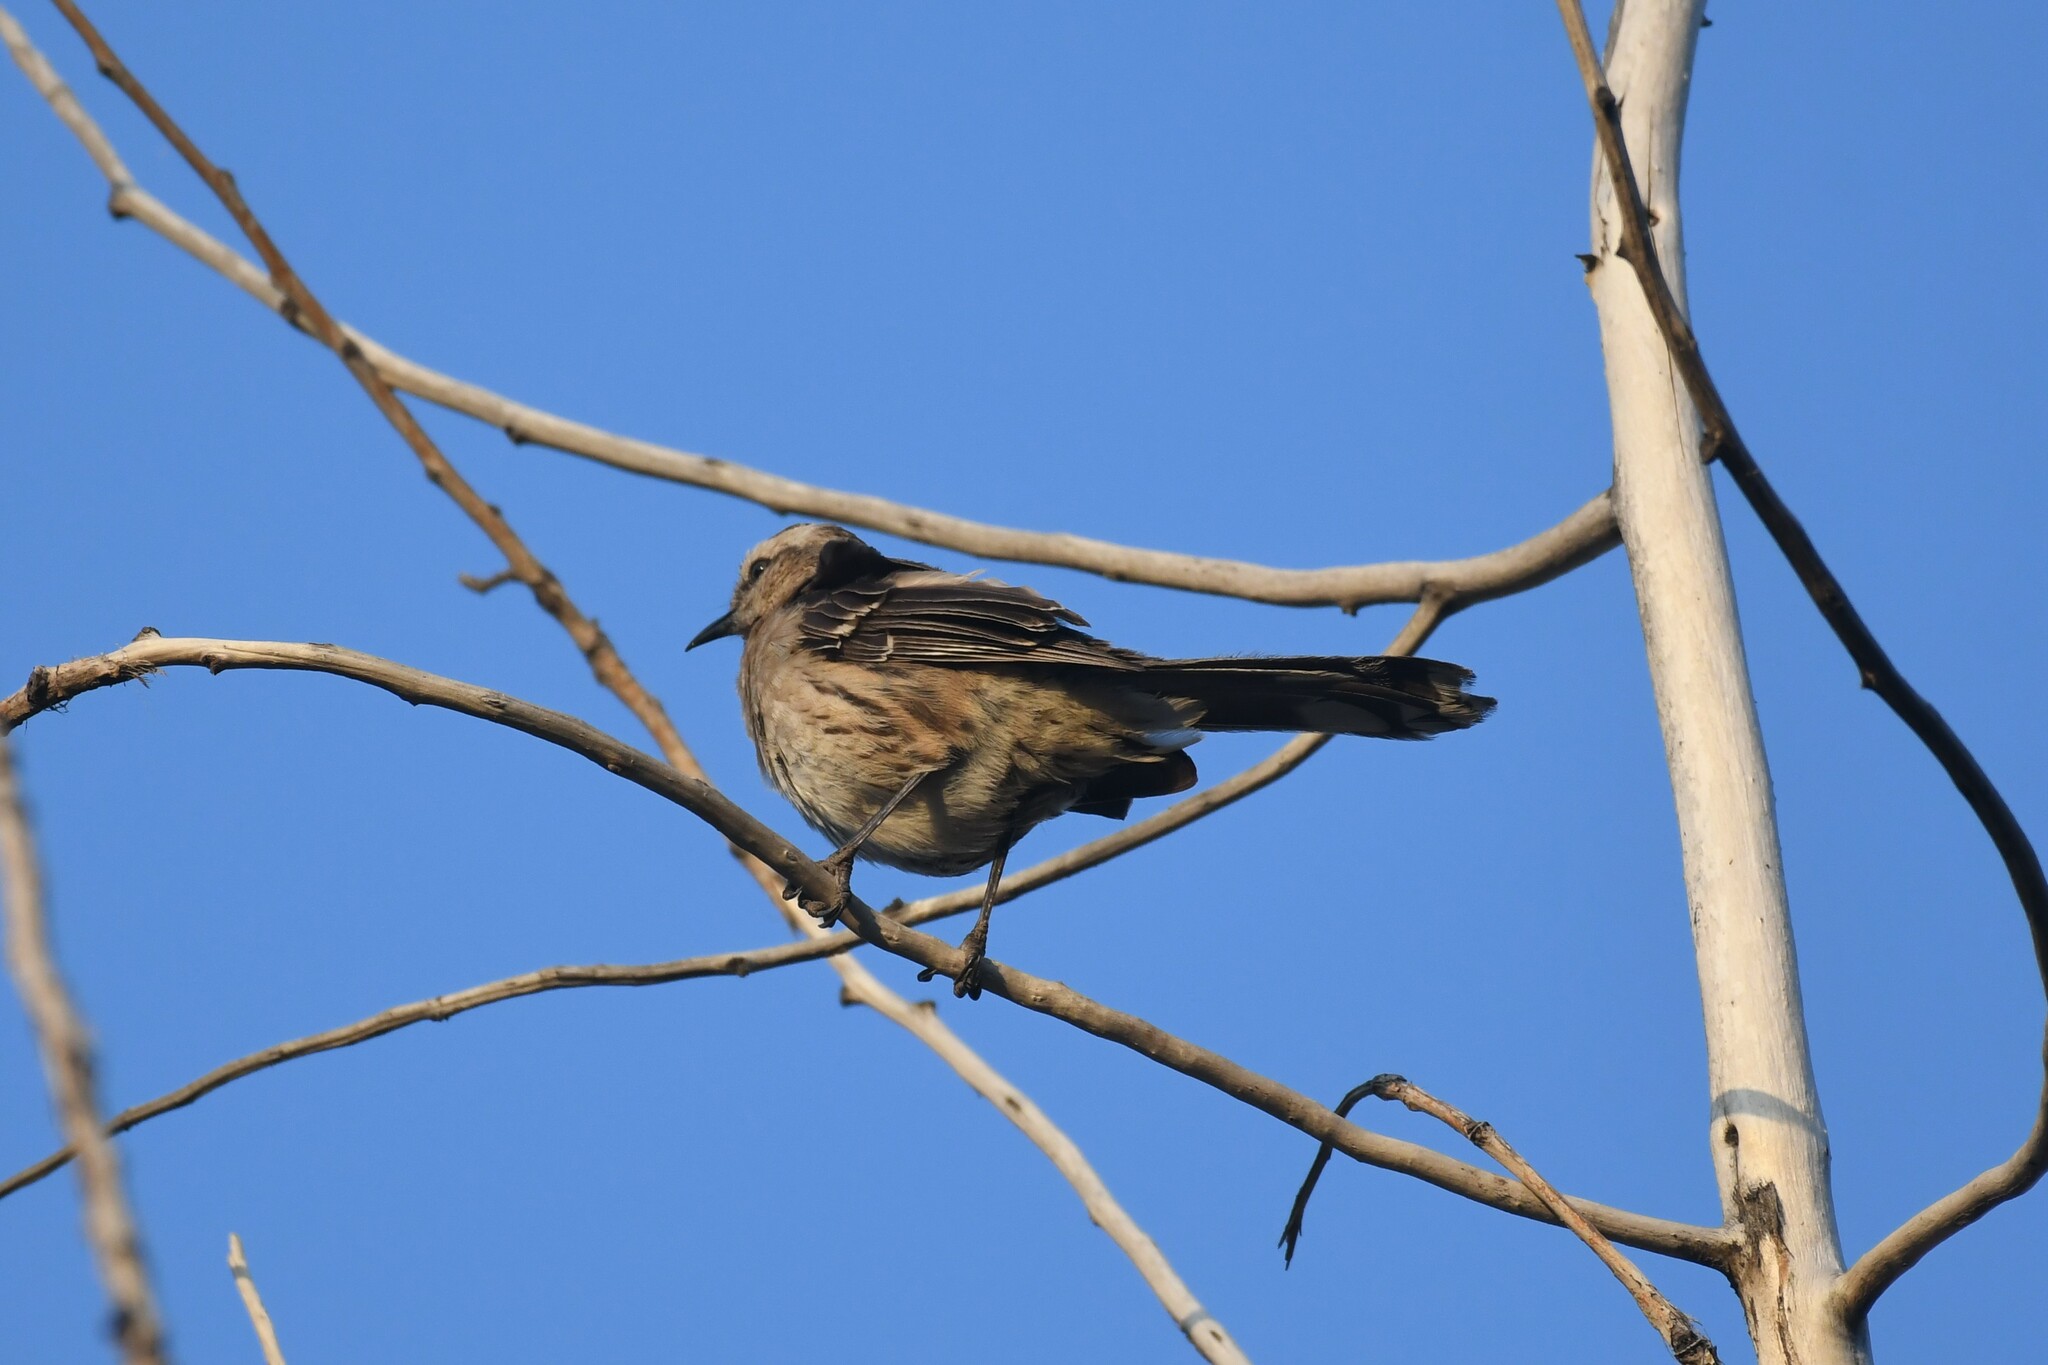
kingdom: Animalia
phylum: Chordata
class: Aves
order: Passeriformes
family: Mimidae
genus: Mimus
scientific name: Mimus thenca
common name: Chilean mockingbird
